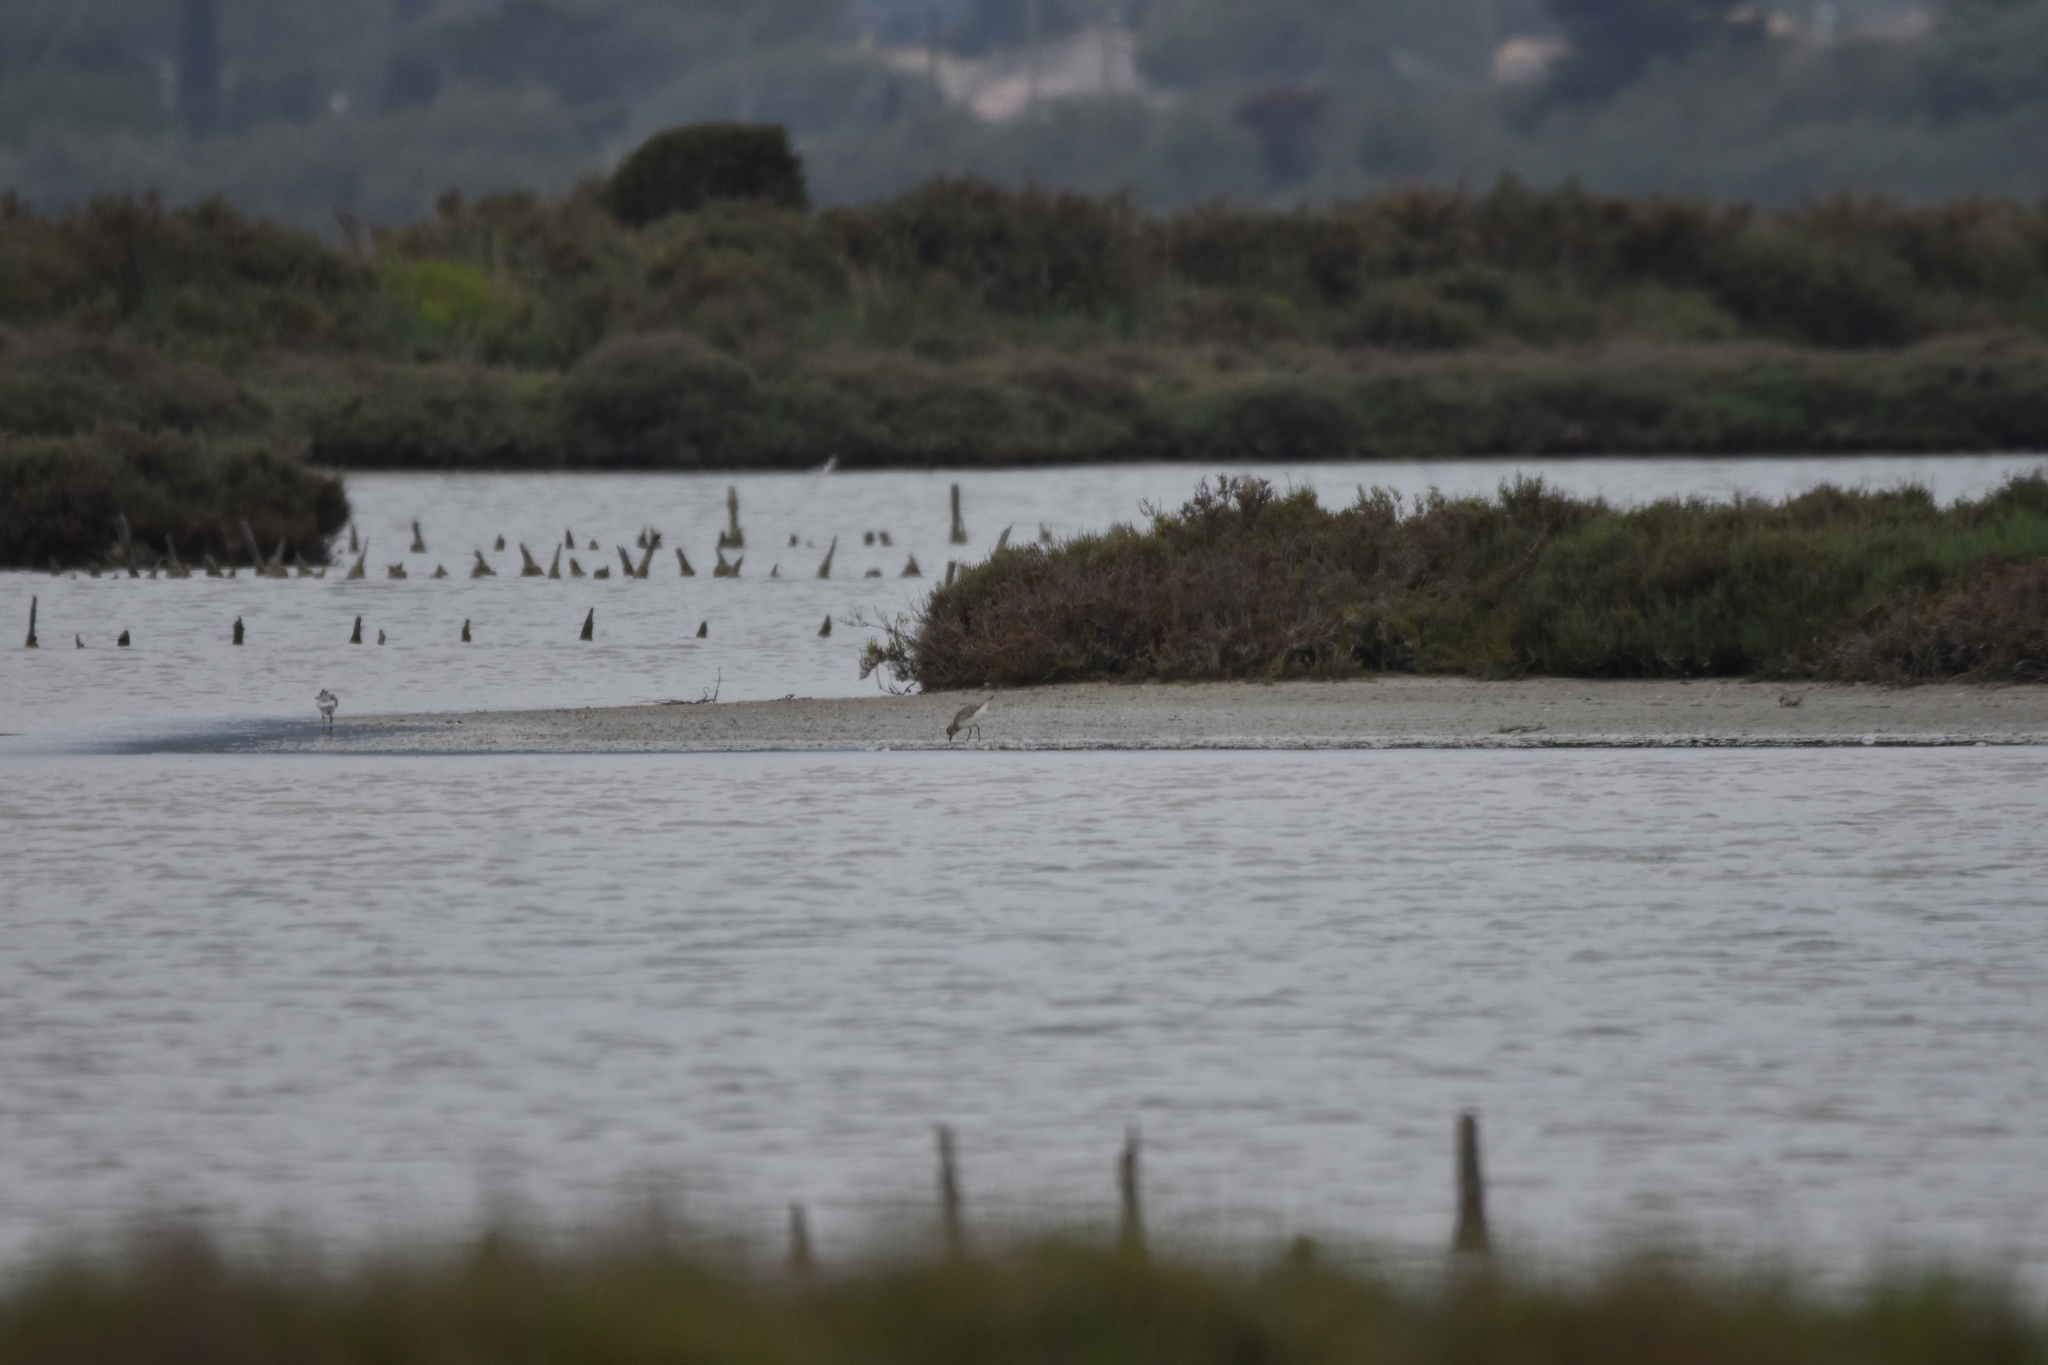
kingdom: Animalia
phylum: Chordata
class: Aves
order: Charadriiformes
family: Charadriidae
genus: Pluvialis
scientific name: Pluvialis squatarola
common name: Grey plover
